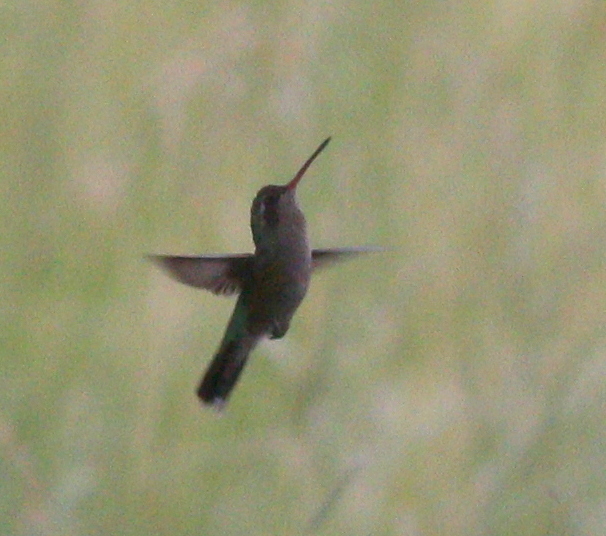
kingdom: Animalia
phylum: Chordata
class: Aves
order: Apodiformes
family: Trochilidae
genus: Chlorostilbon
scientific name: Chlorostilbon lucidus
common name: Glittering-bellied emerald
